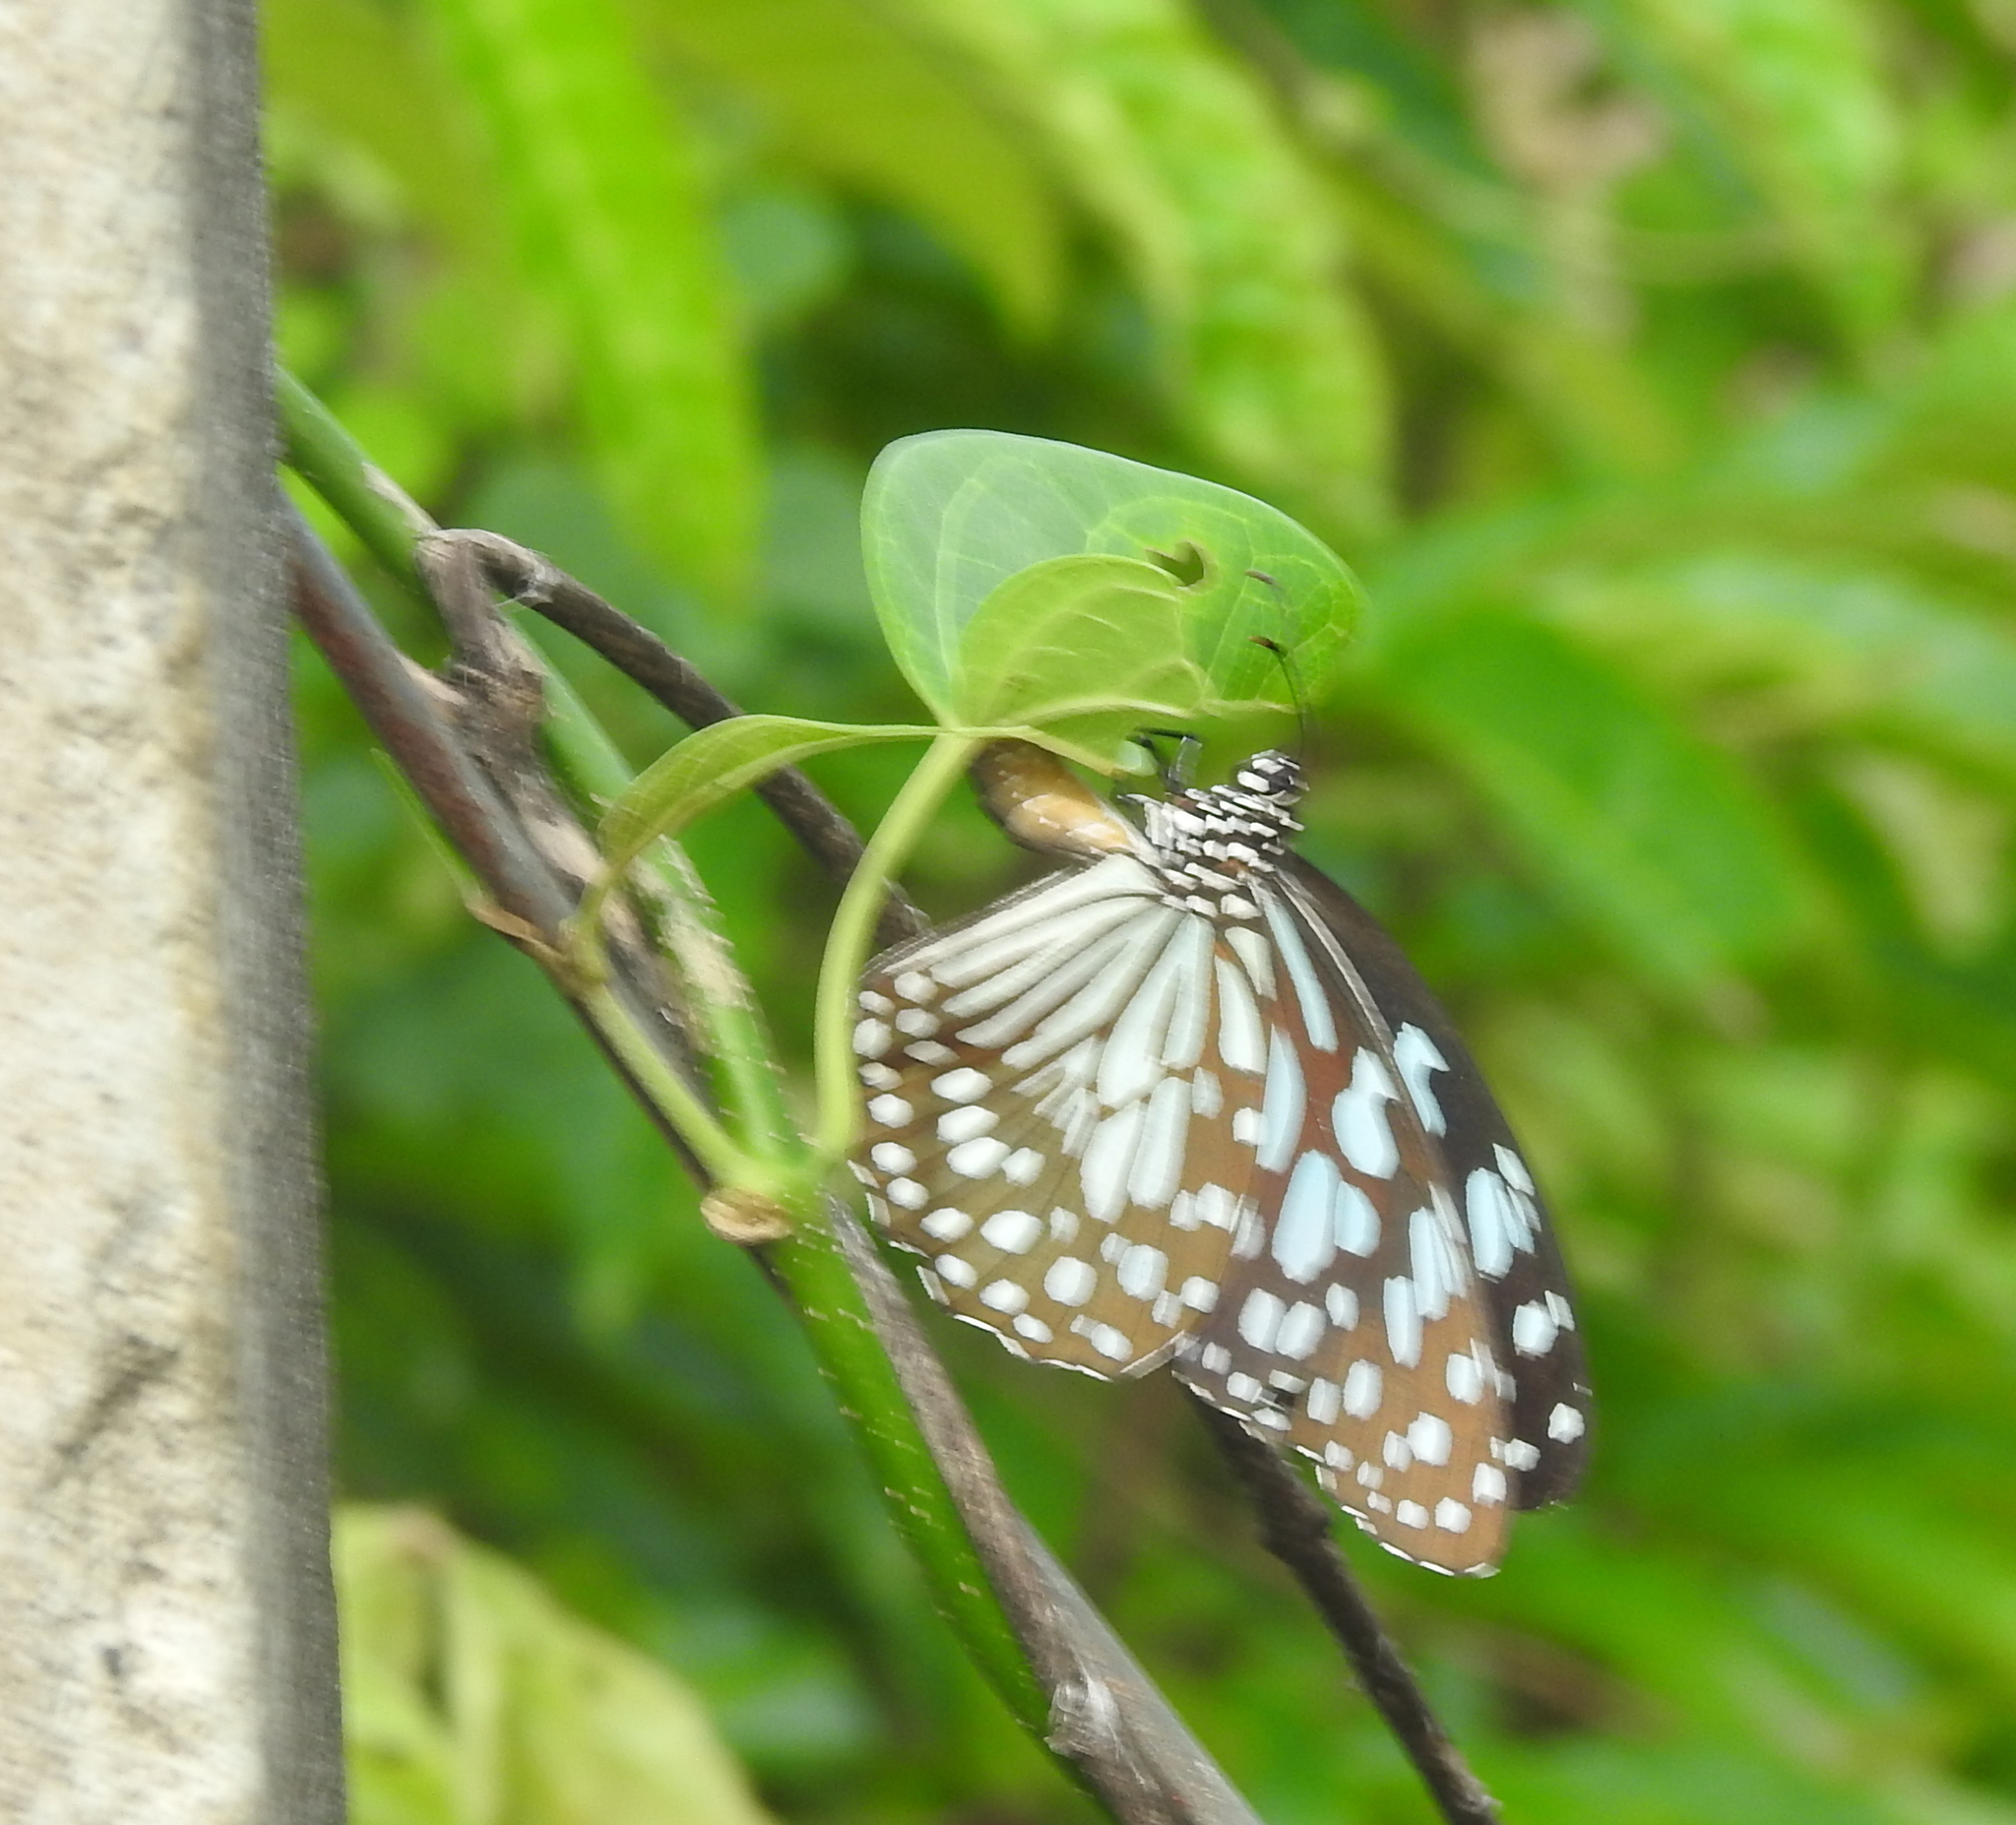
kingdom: Animalia
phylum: Arthropoda
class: Insecta
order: Lepidoptera
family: Nymphalidae
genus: Tirumala
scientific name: Tirumala limniace
